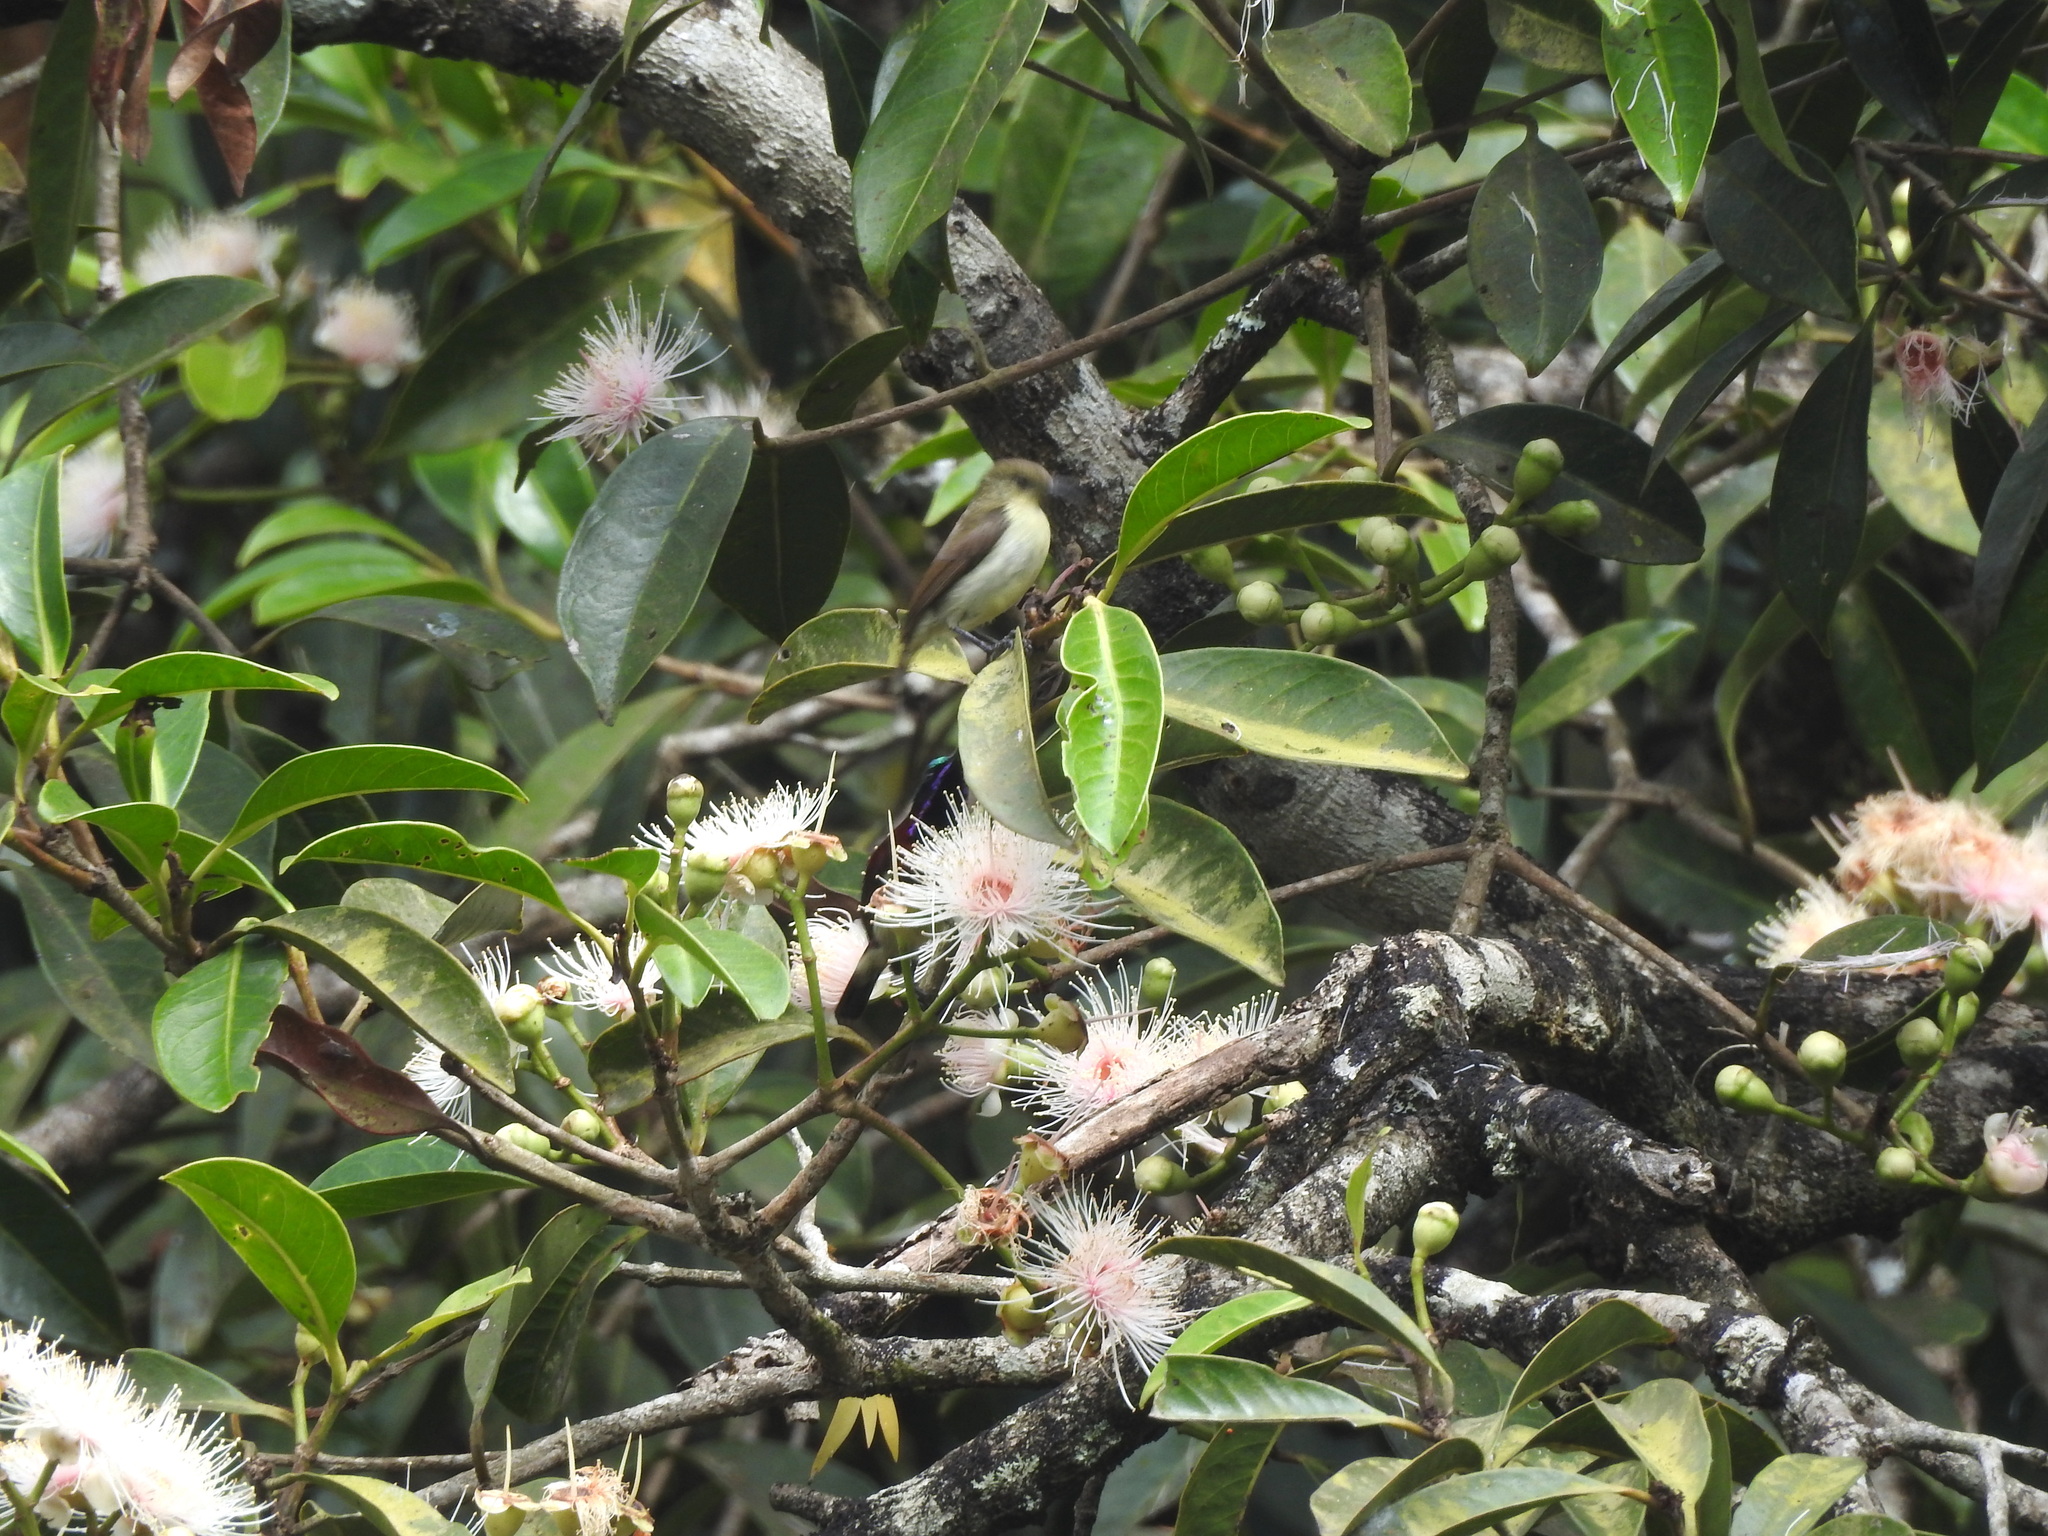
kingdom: Animalia
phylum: Chordata
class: Aves
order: Passeriformes
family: Nectariniidae
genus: Leptocoma
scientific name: Leptocoma minima
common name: Crimson-backed sunbird
